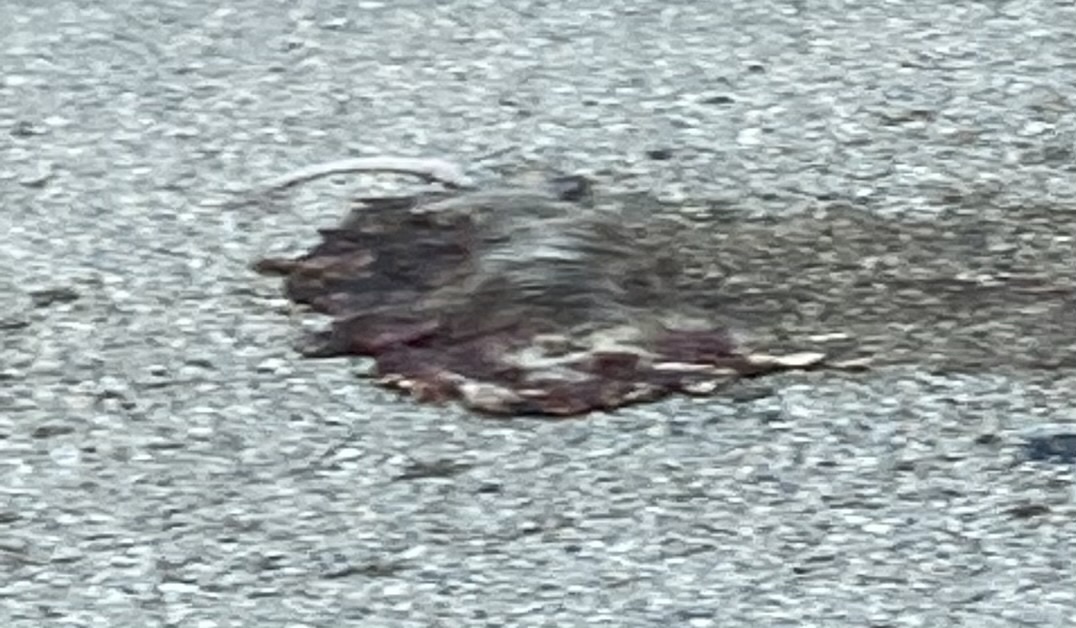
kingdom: Animalia
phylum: Chordata
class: Mammalia
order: Didelphimorphia
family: Didelphidae
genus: Didelphis
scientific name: Didelphis virginiana
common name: Virginia opossum
